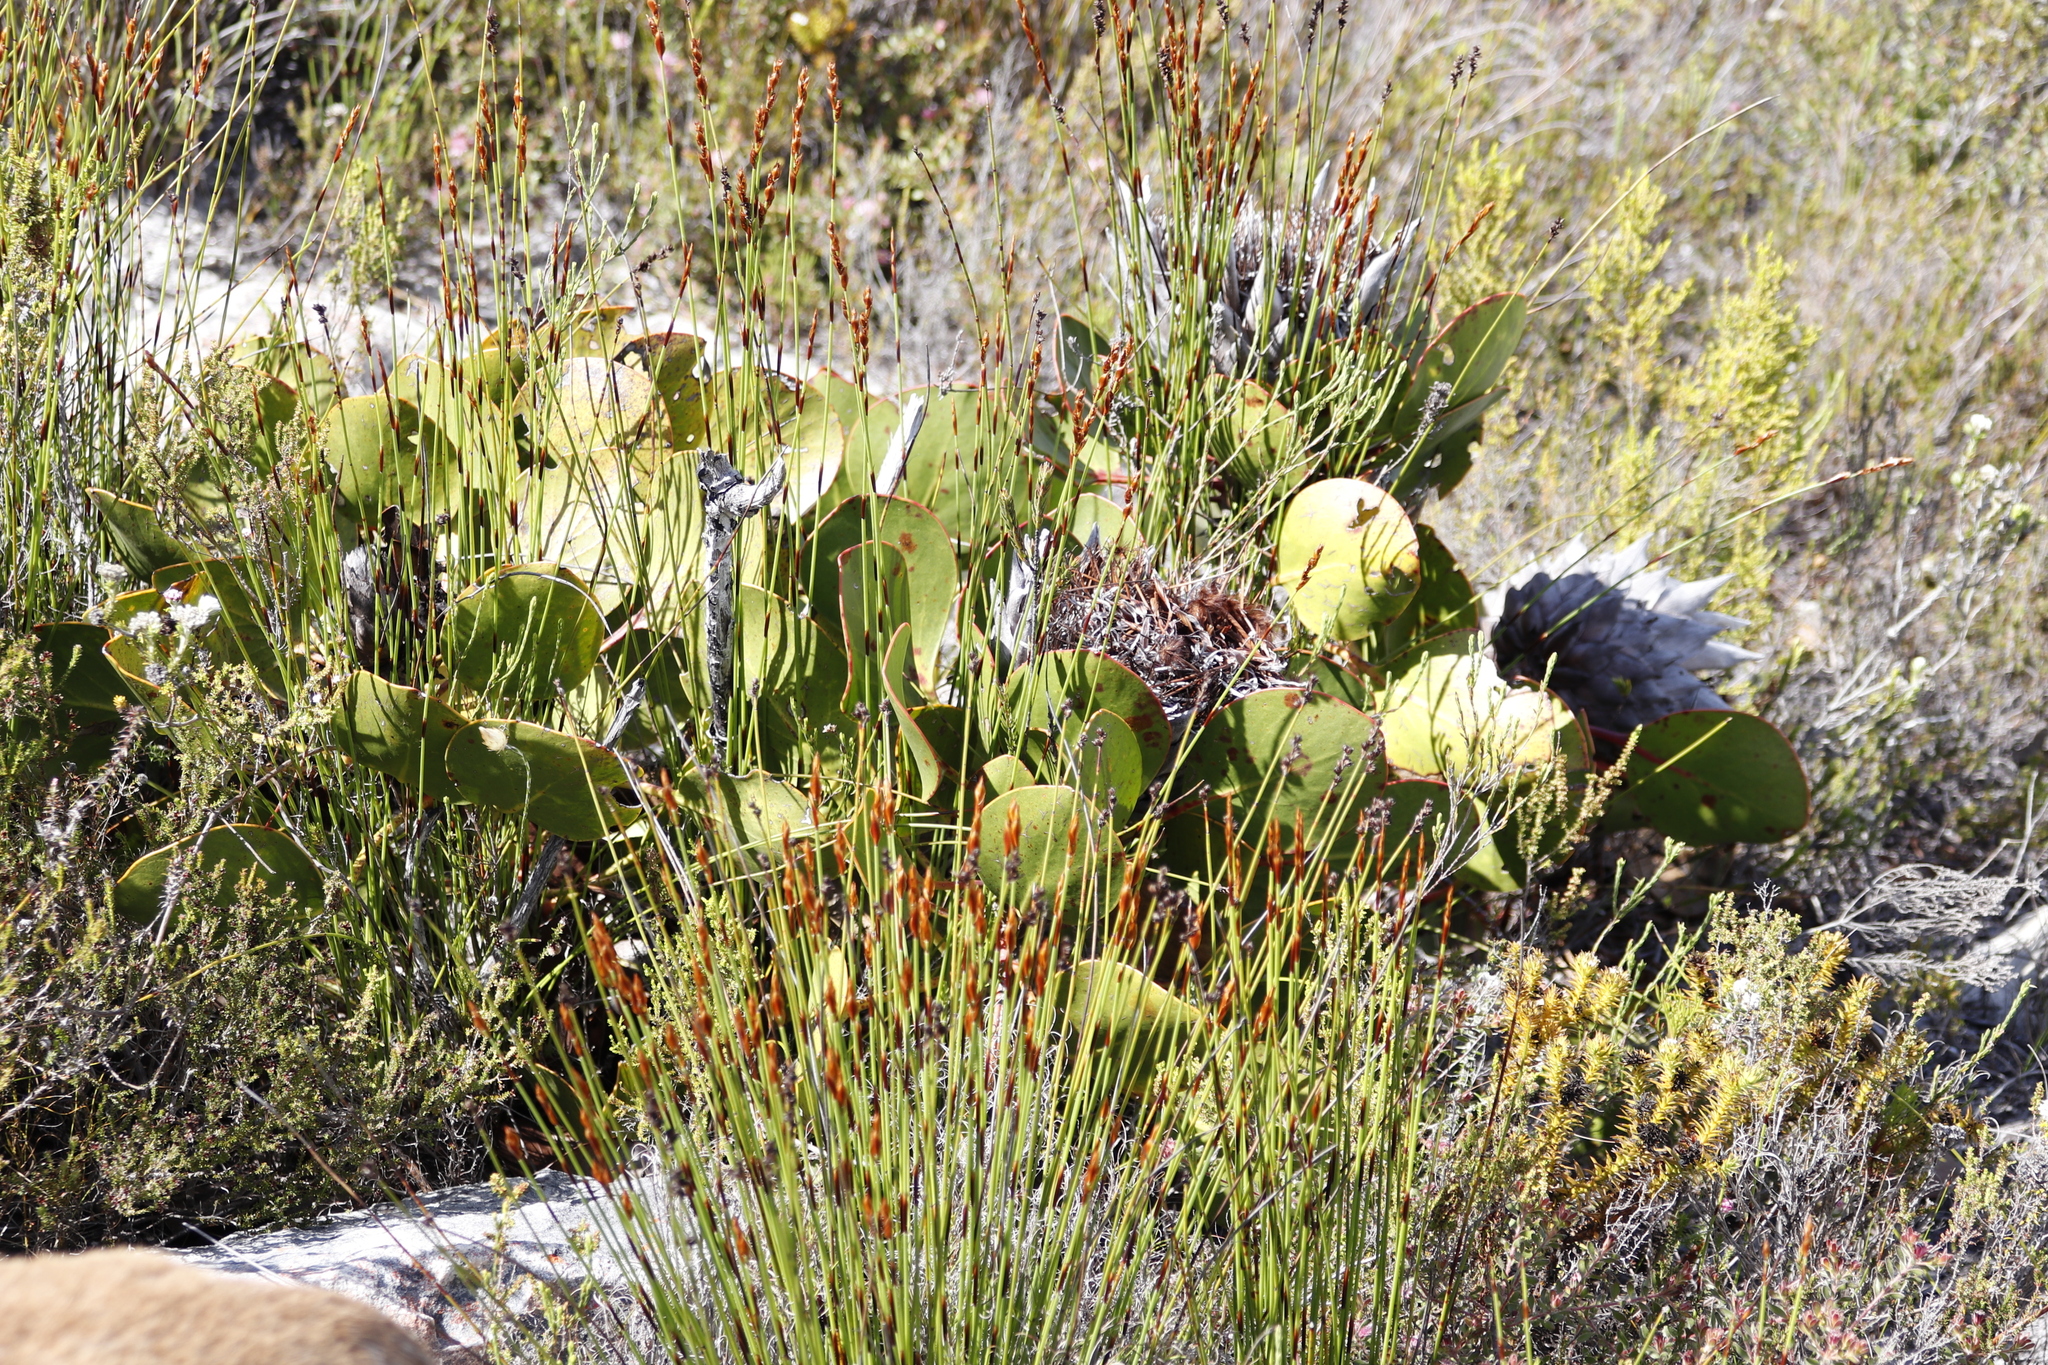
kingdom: Plantae
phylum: Tracheophyta
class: Magnoliopsida
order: Proteales
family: Proteaceae
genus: Protea
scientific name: Protea cynaroides
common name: King protea
